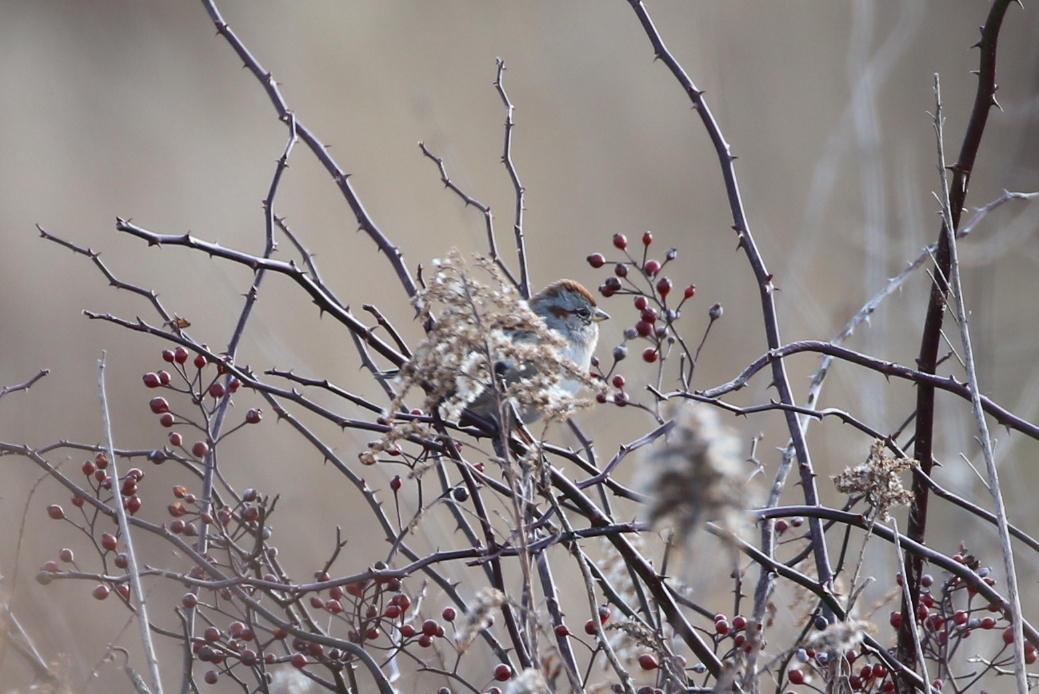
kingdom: Animalia
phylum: Chordata
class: Aves
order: Passeriformes
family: Passerellidae
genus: Spizelloides
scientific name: Spizelloides arborea
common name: American tree sparrow
